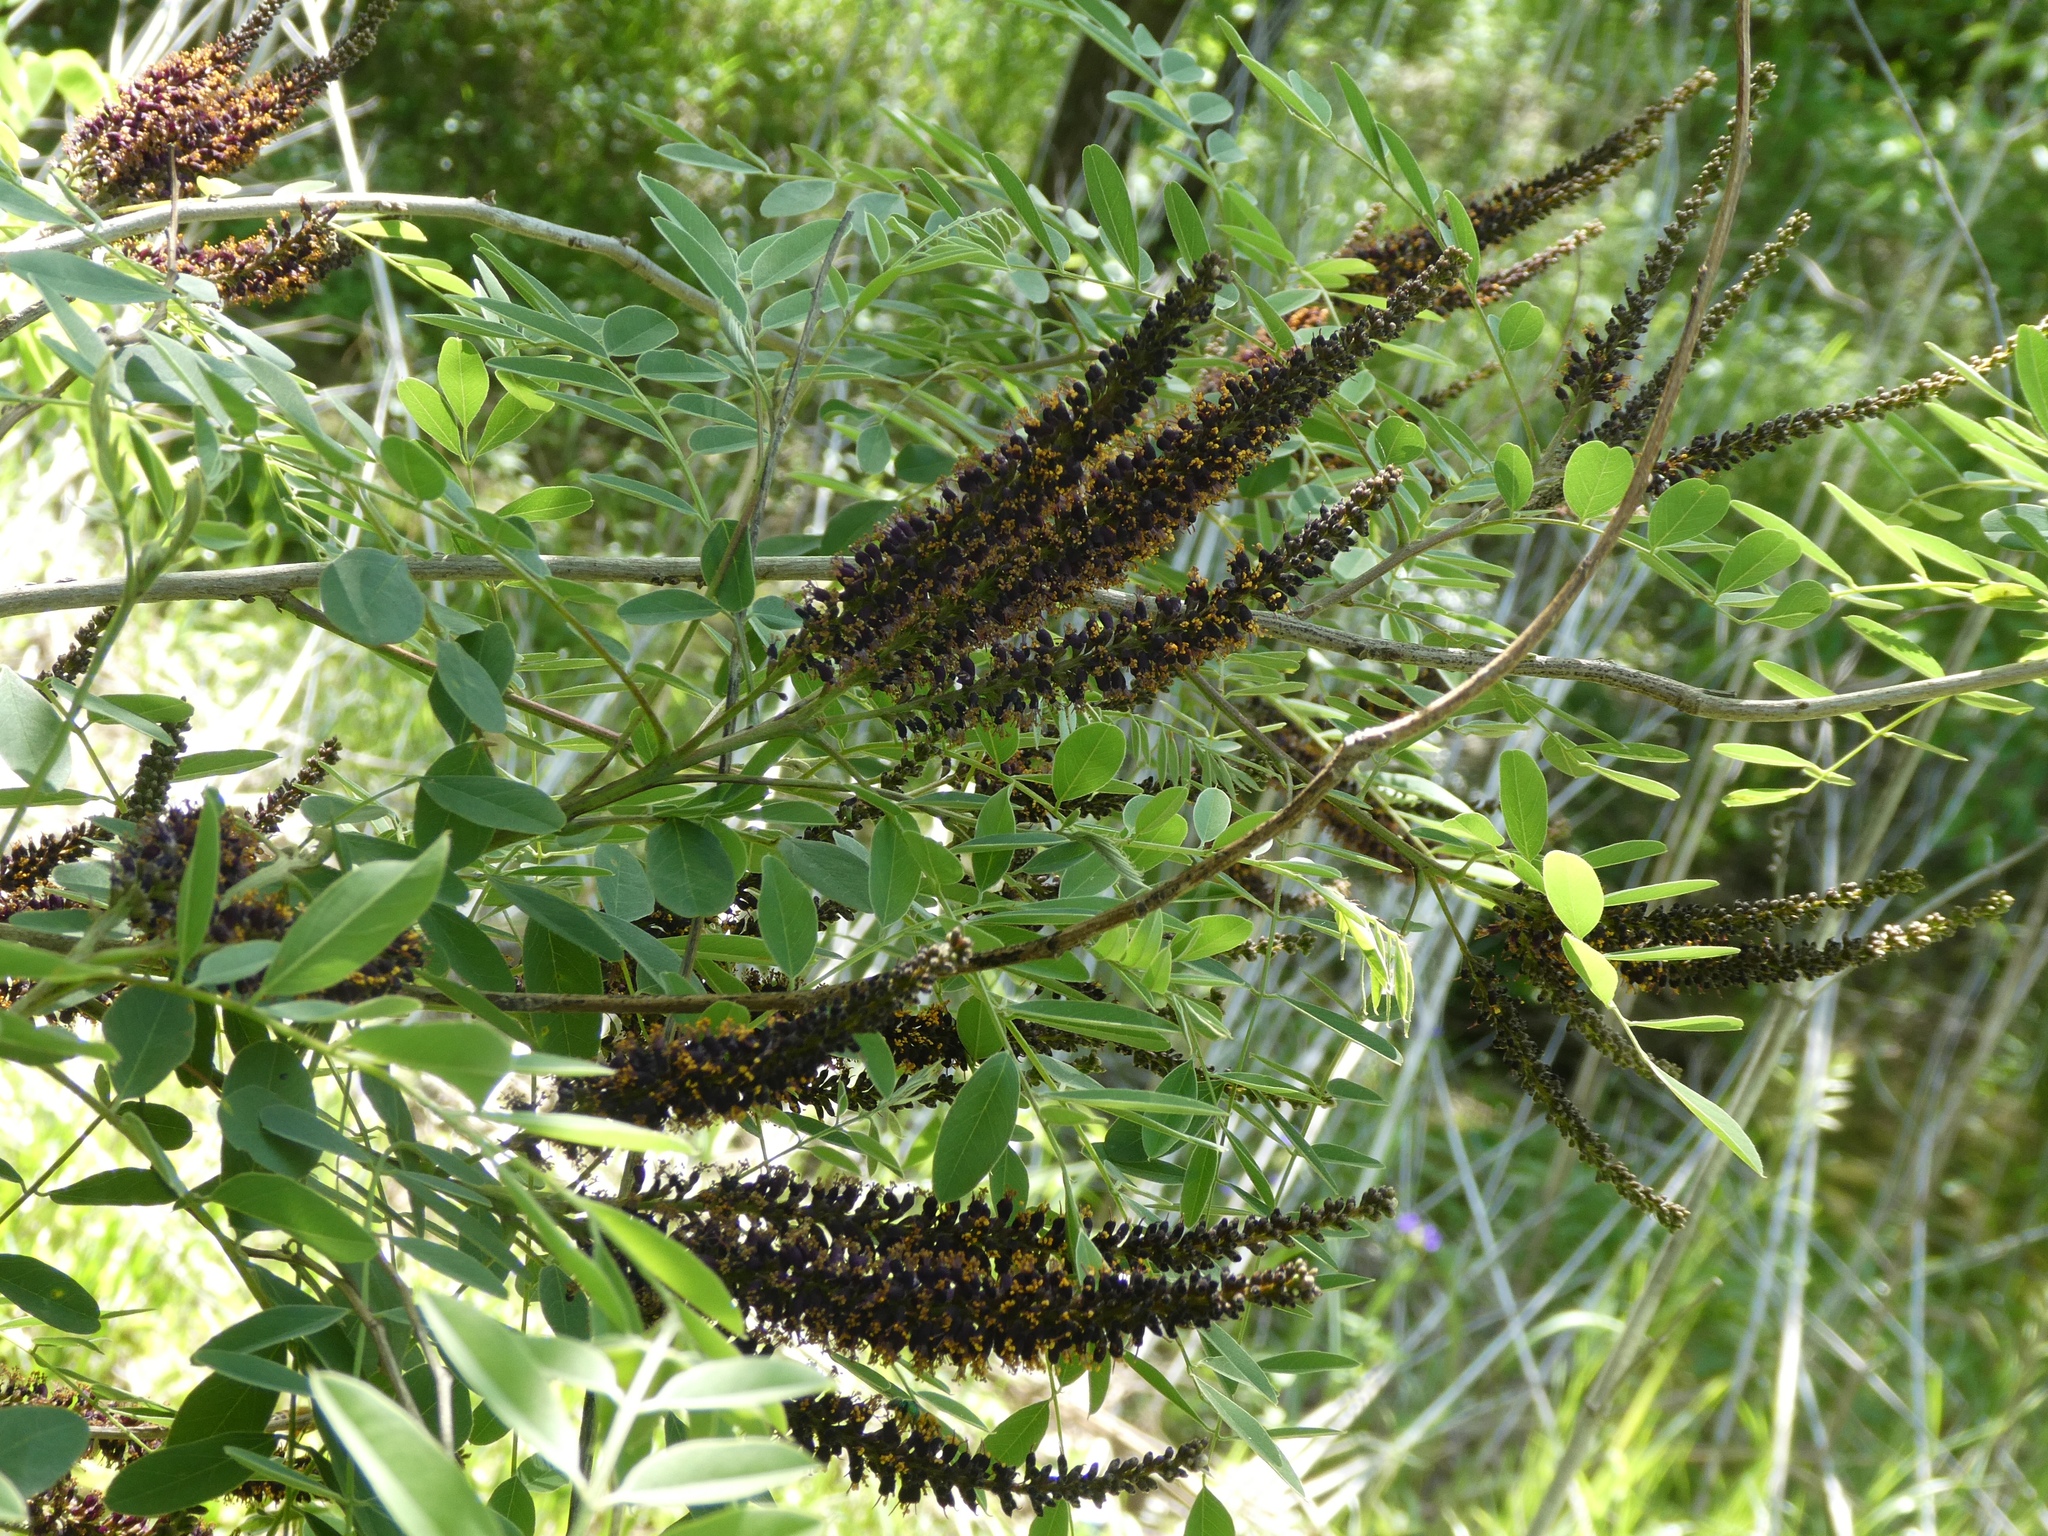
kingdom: Plantae
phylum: Tracheophyta
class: Magnoliopsida
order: Fabales
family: Fabaceae
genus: Amorpha
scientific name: Amorpha fruticosa
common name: False indigo
